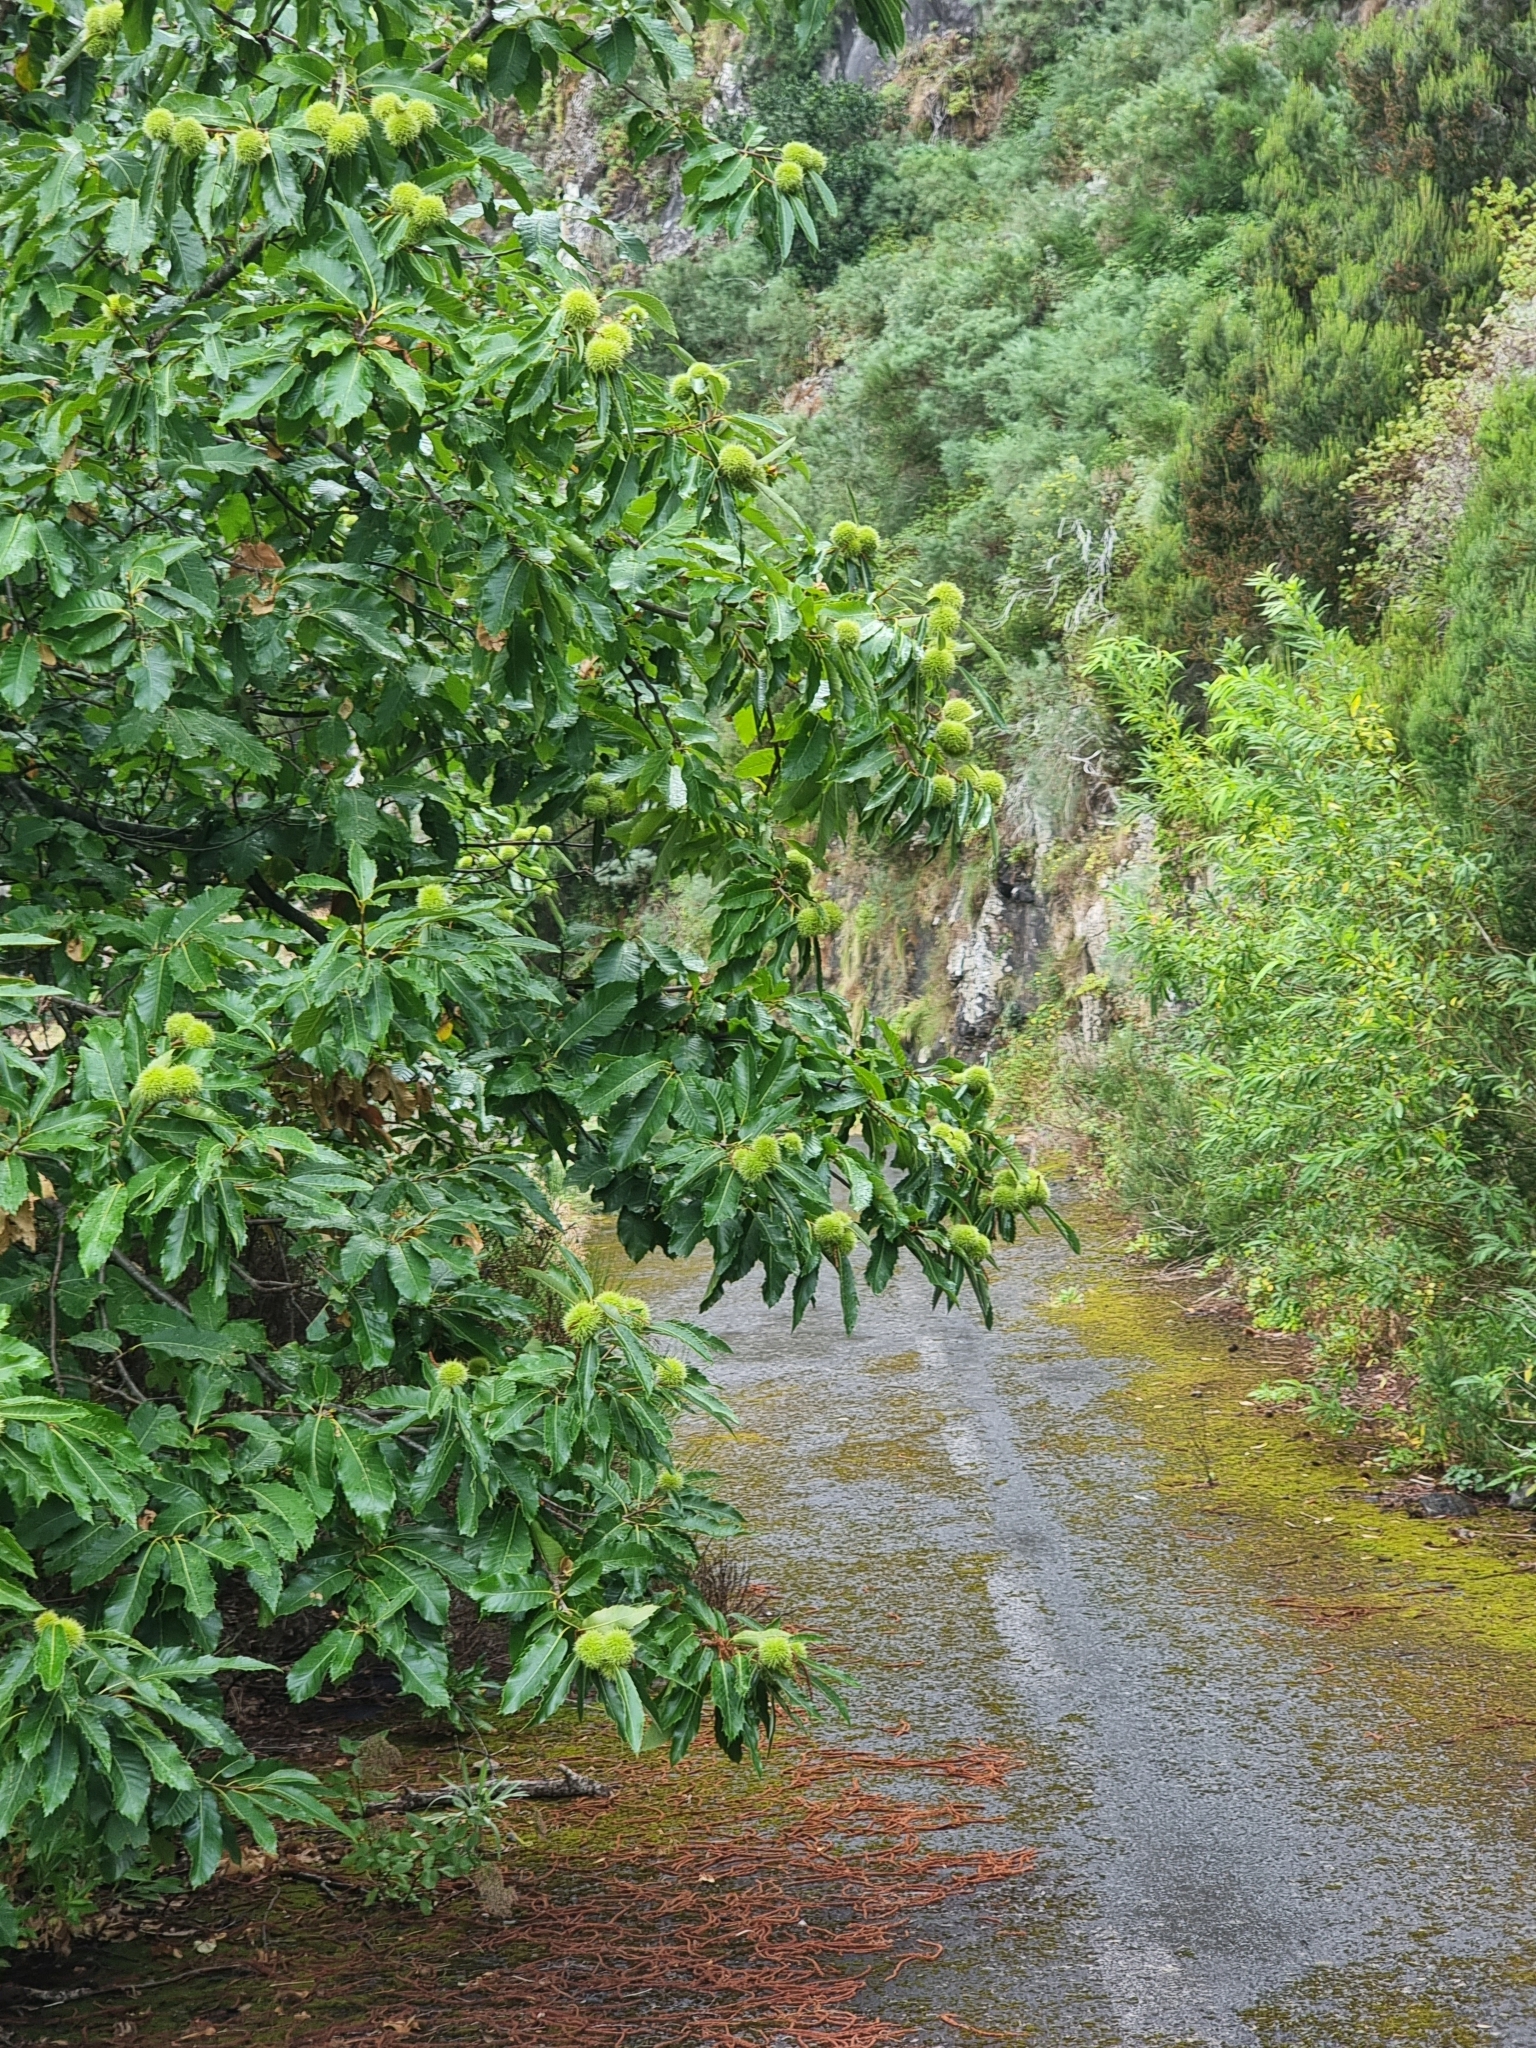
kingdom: Plantae
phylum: Tracheophyta
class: Magnoliopsida
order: Fagales
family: Fagaceae
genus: Castanea
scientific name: Castanea sativa
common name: Sweet chestnut
